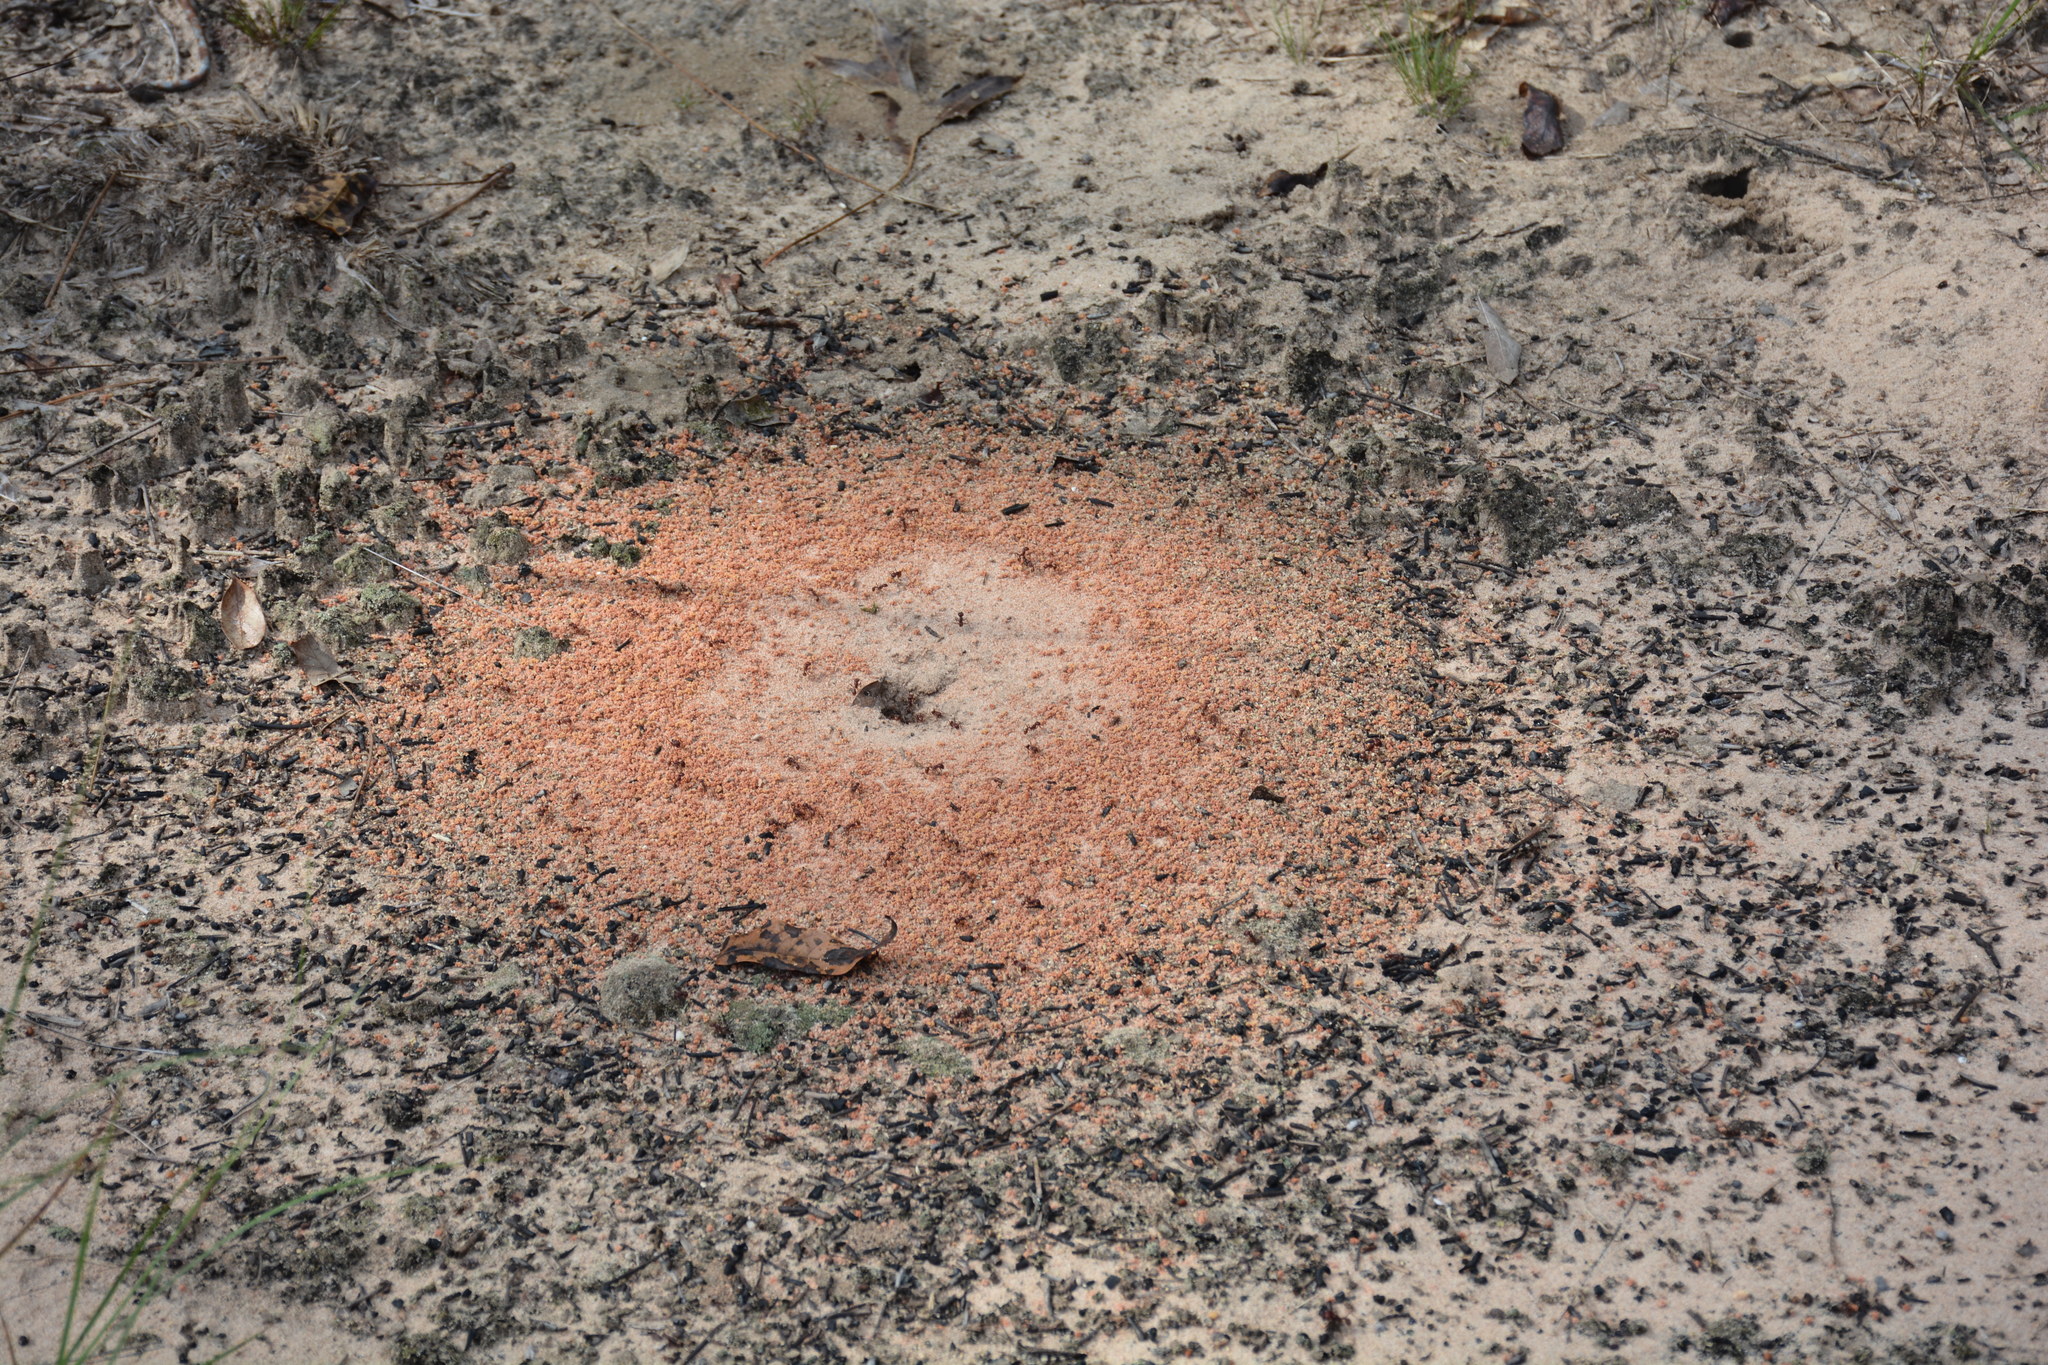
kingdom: Animalia
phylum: Arthropoda
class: Insecta
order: Hymenoptera
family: Formicidae
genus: Pogonomyrmex
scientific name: Pogonomyrmex badius
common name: Florida harvester ant
